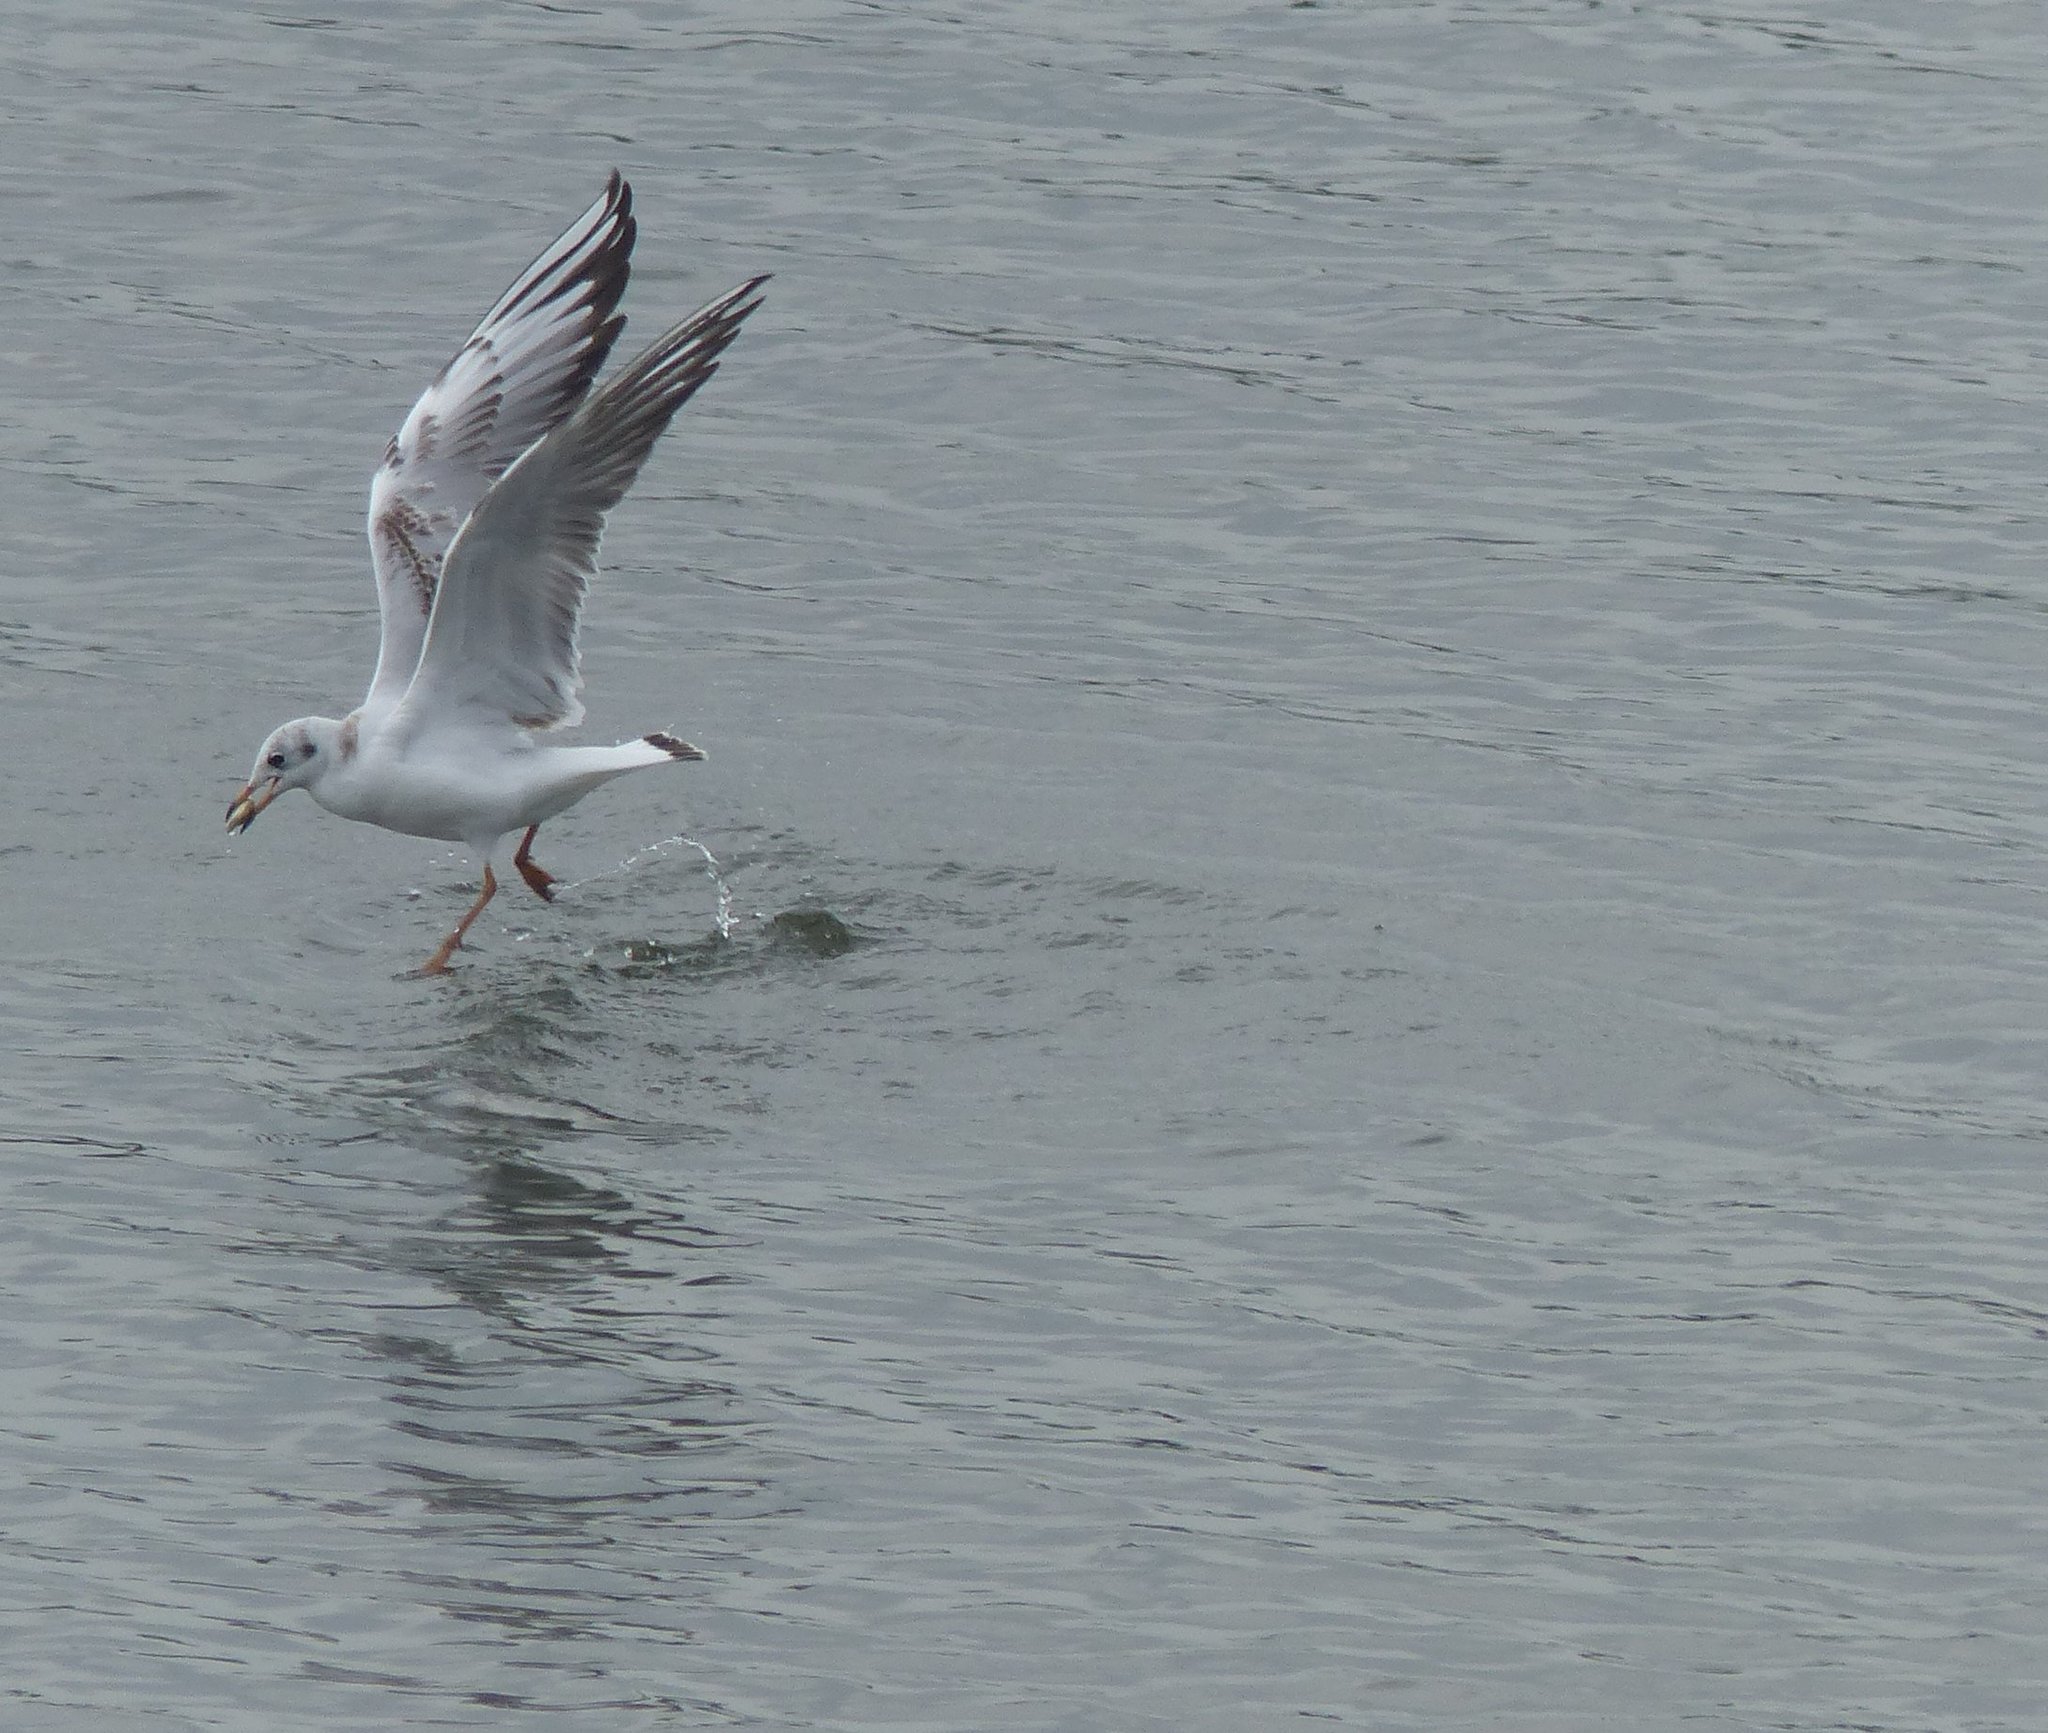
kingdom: Animalia
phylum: Chordata
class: Aves
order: Charadriiformes
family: Laridae
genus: Chroicocephalus
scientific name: Chroicocephalus ridibundus
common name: Black-headed gull
